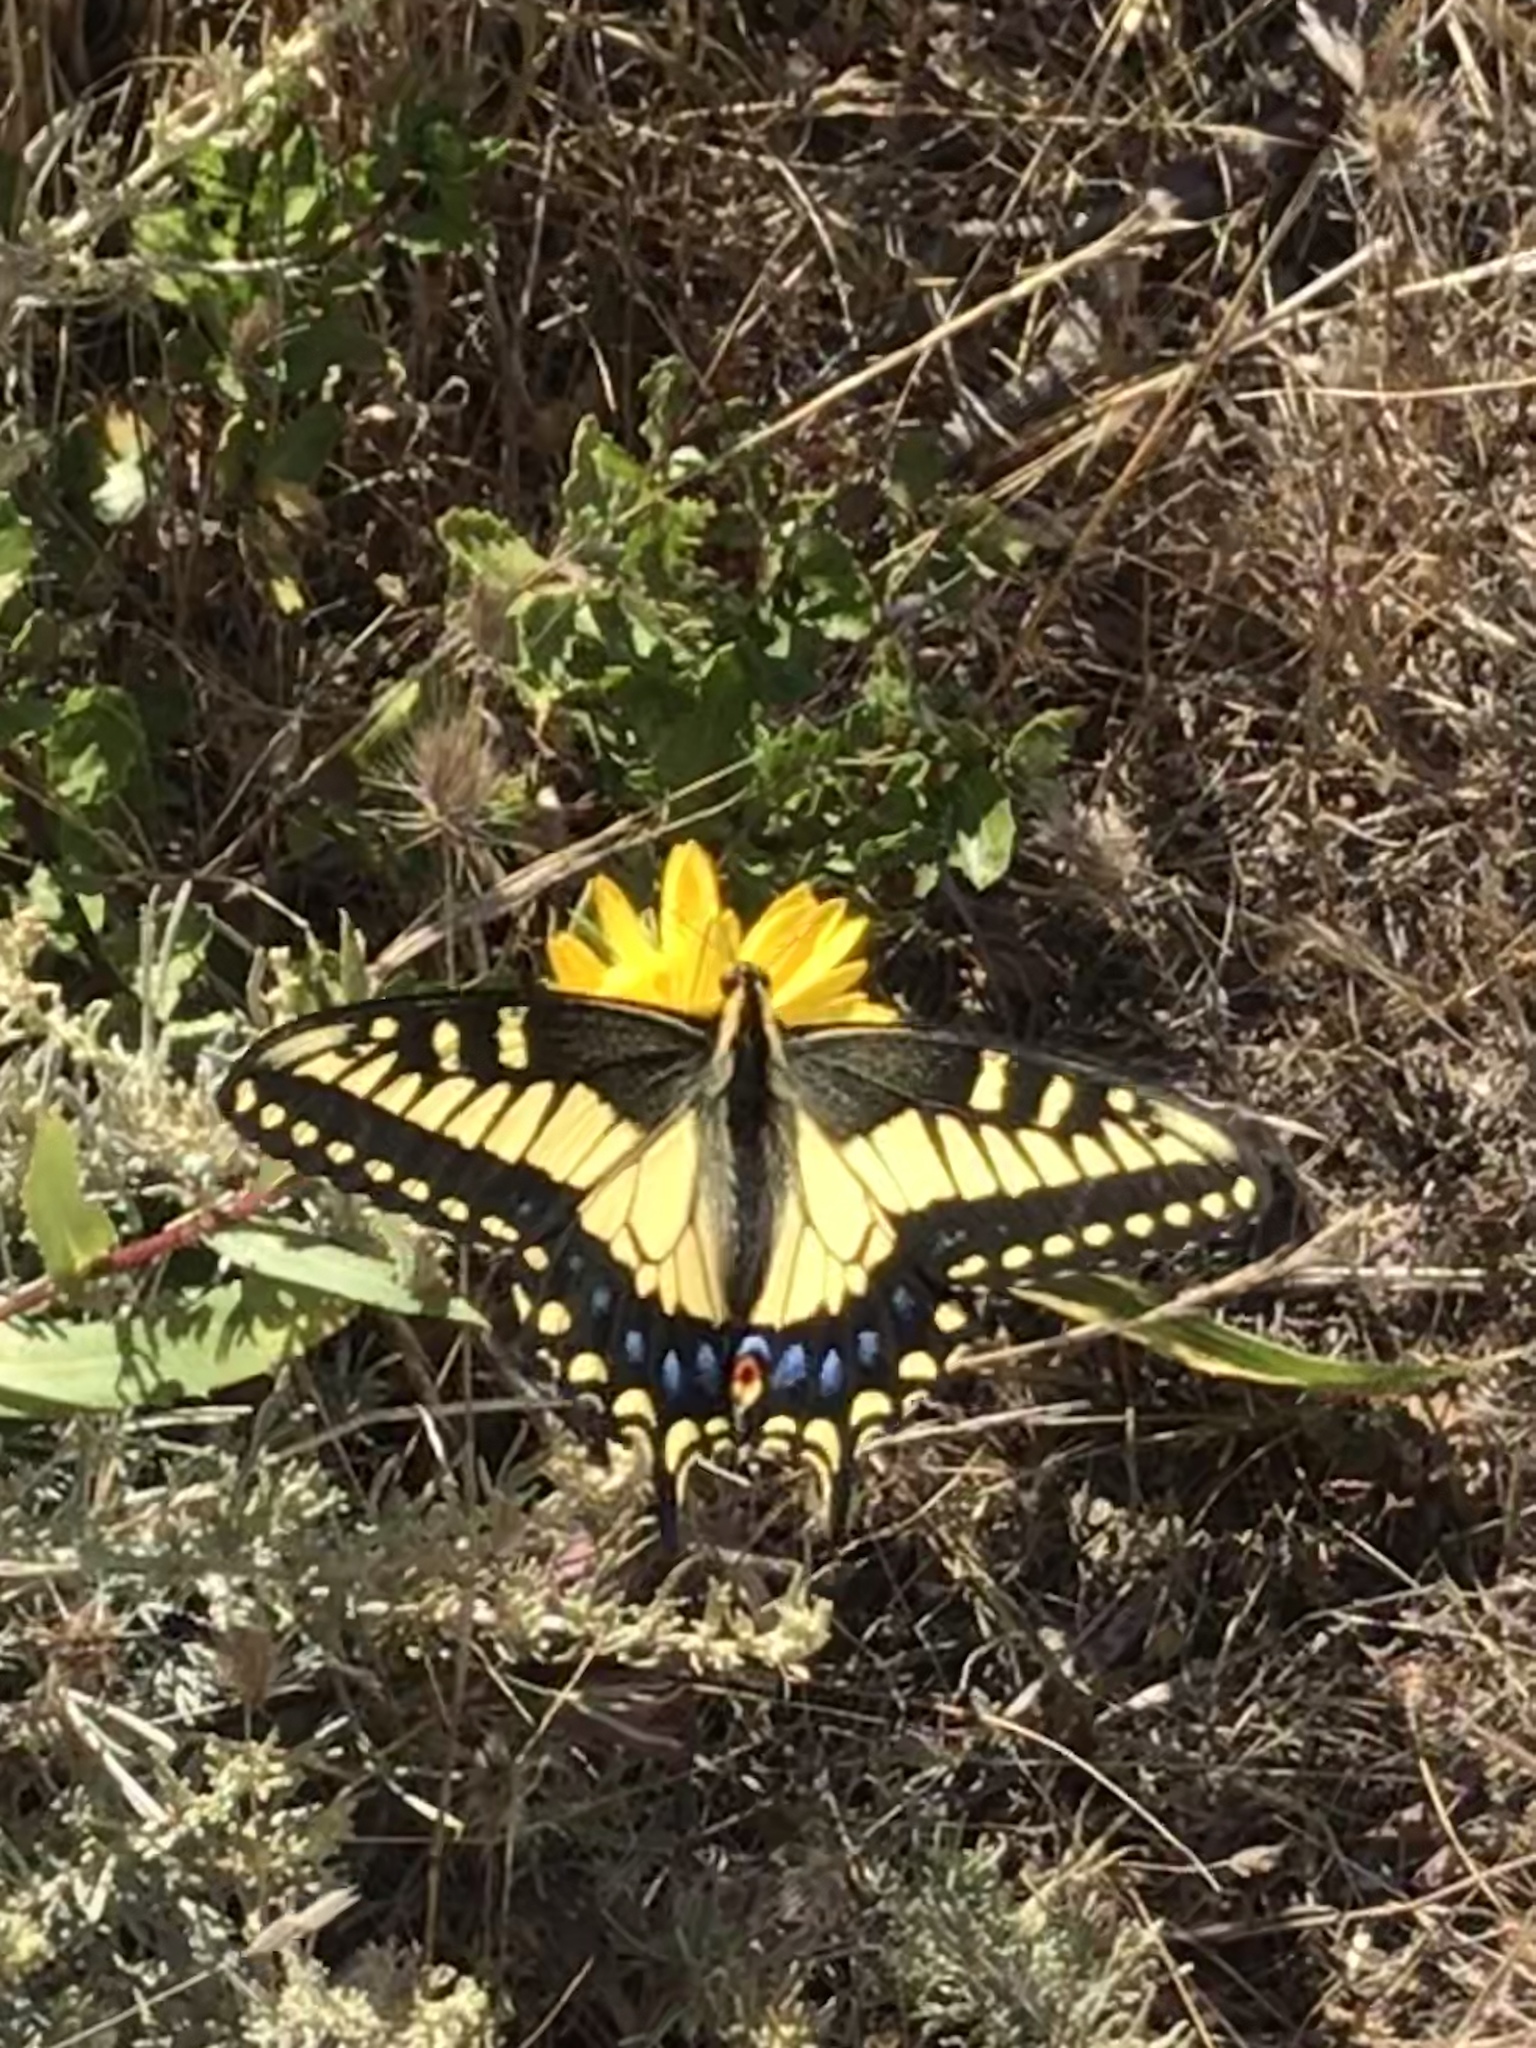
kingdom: Animalia
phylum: Arthropoda
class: Insecta
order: Lepidoptera
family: Papilionidae
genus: Papilio
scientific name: Papilio zelicaon
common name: Anise swallowtail
